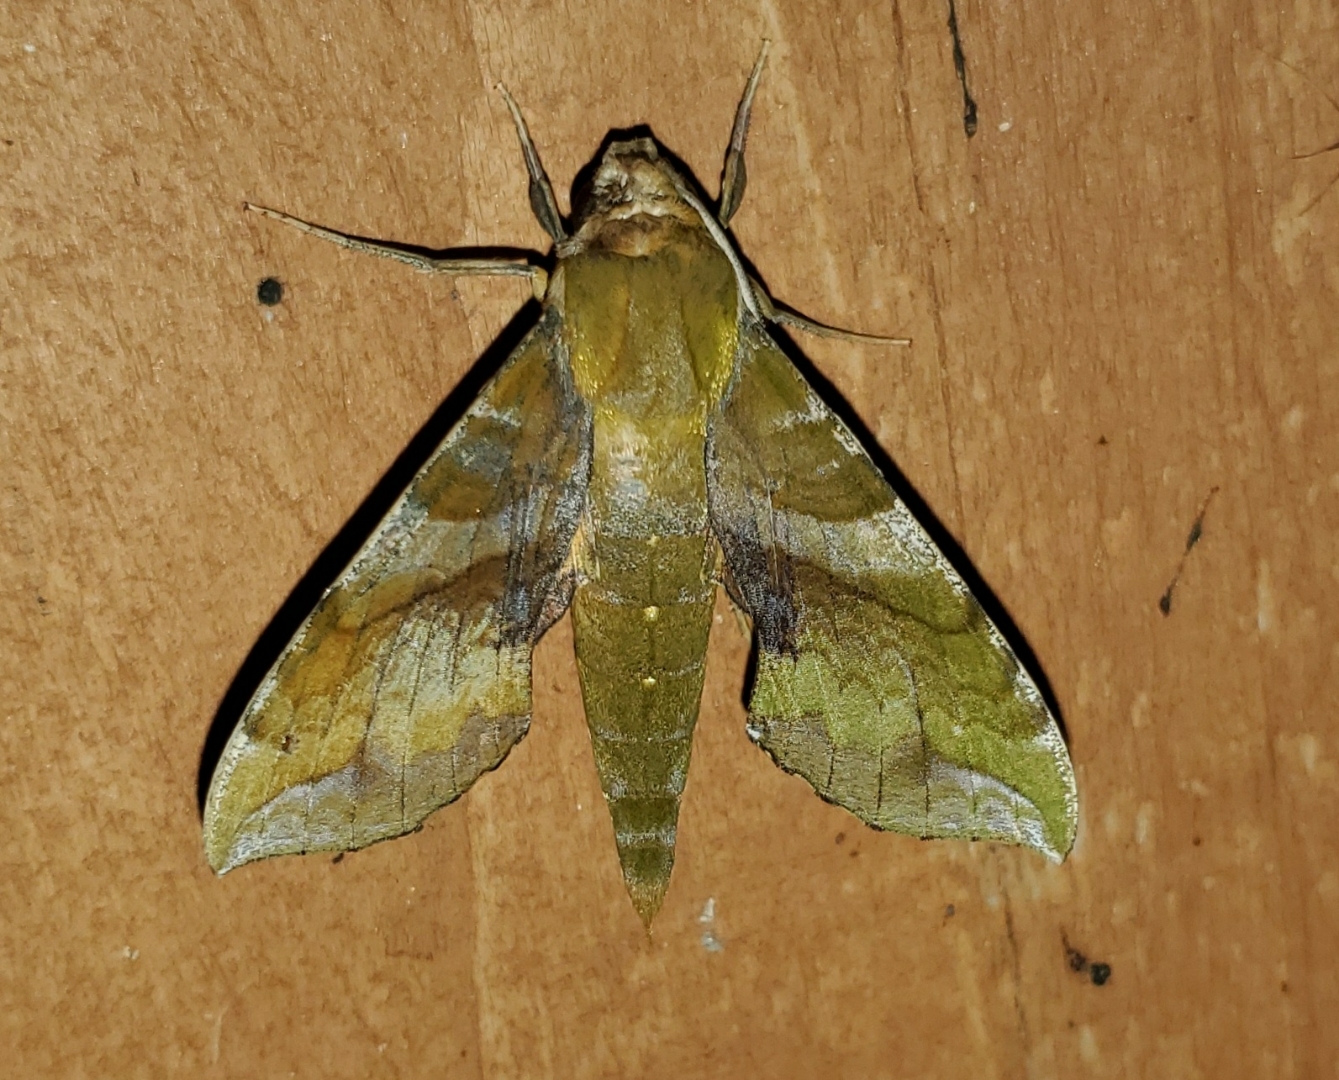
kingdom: Animalia
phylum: Arthropoda
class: Insecta
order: Lepidoptera
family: Sphingidae
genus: Xylophanes
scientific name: Xylophanes pluto
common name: Pluto sphinx
